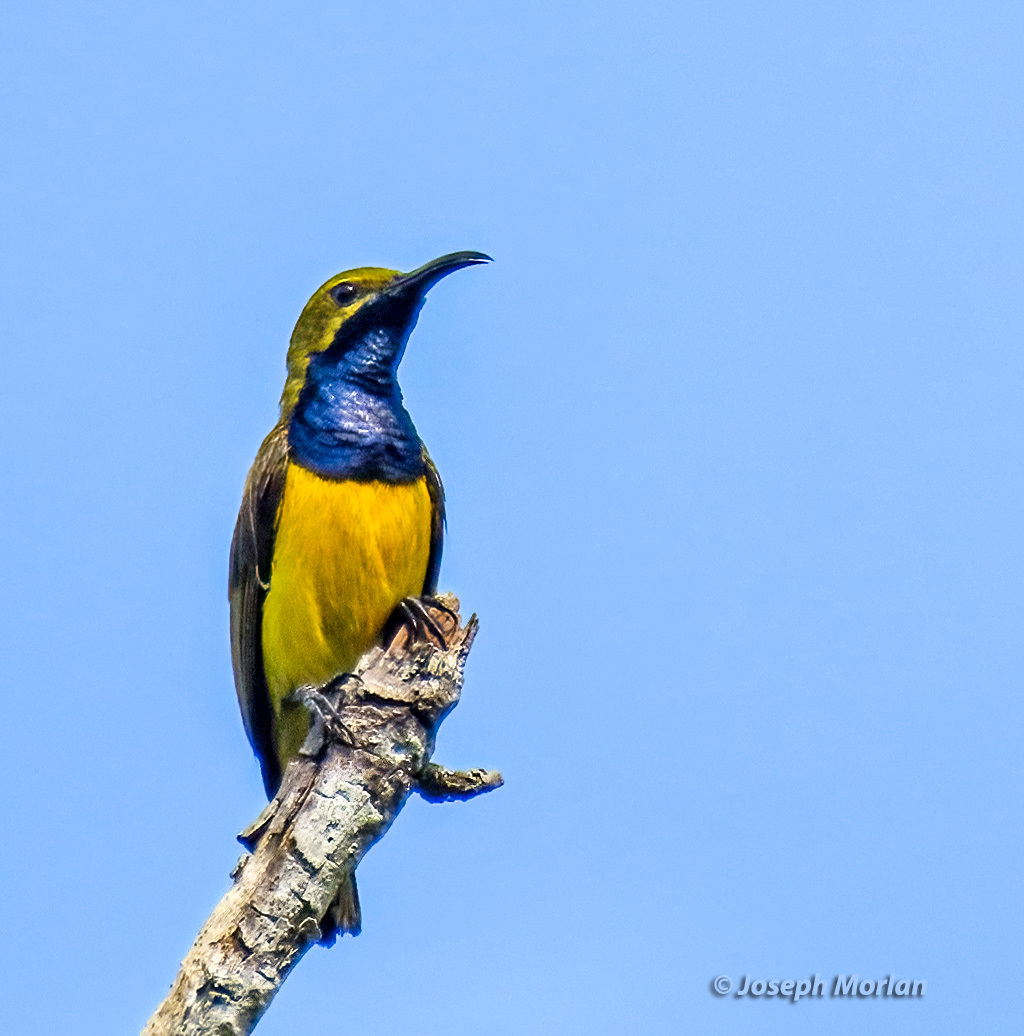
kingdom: Animalia
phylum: Chordata
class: Aves
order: Passeriformes
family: Nectariniidae
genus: Cinnyris
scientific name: Cinnyris
